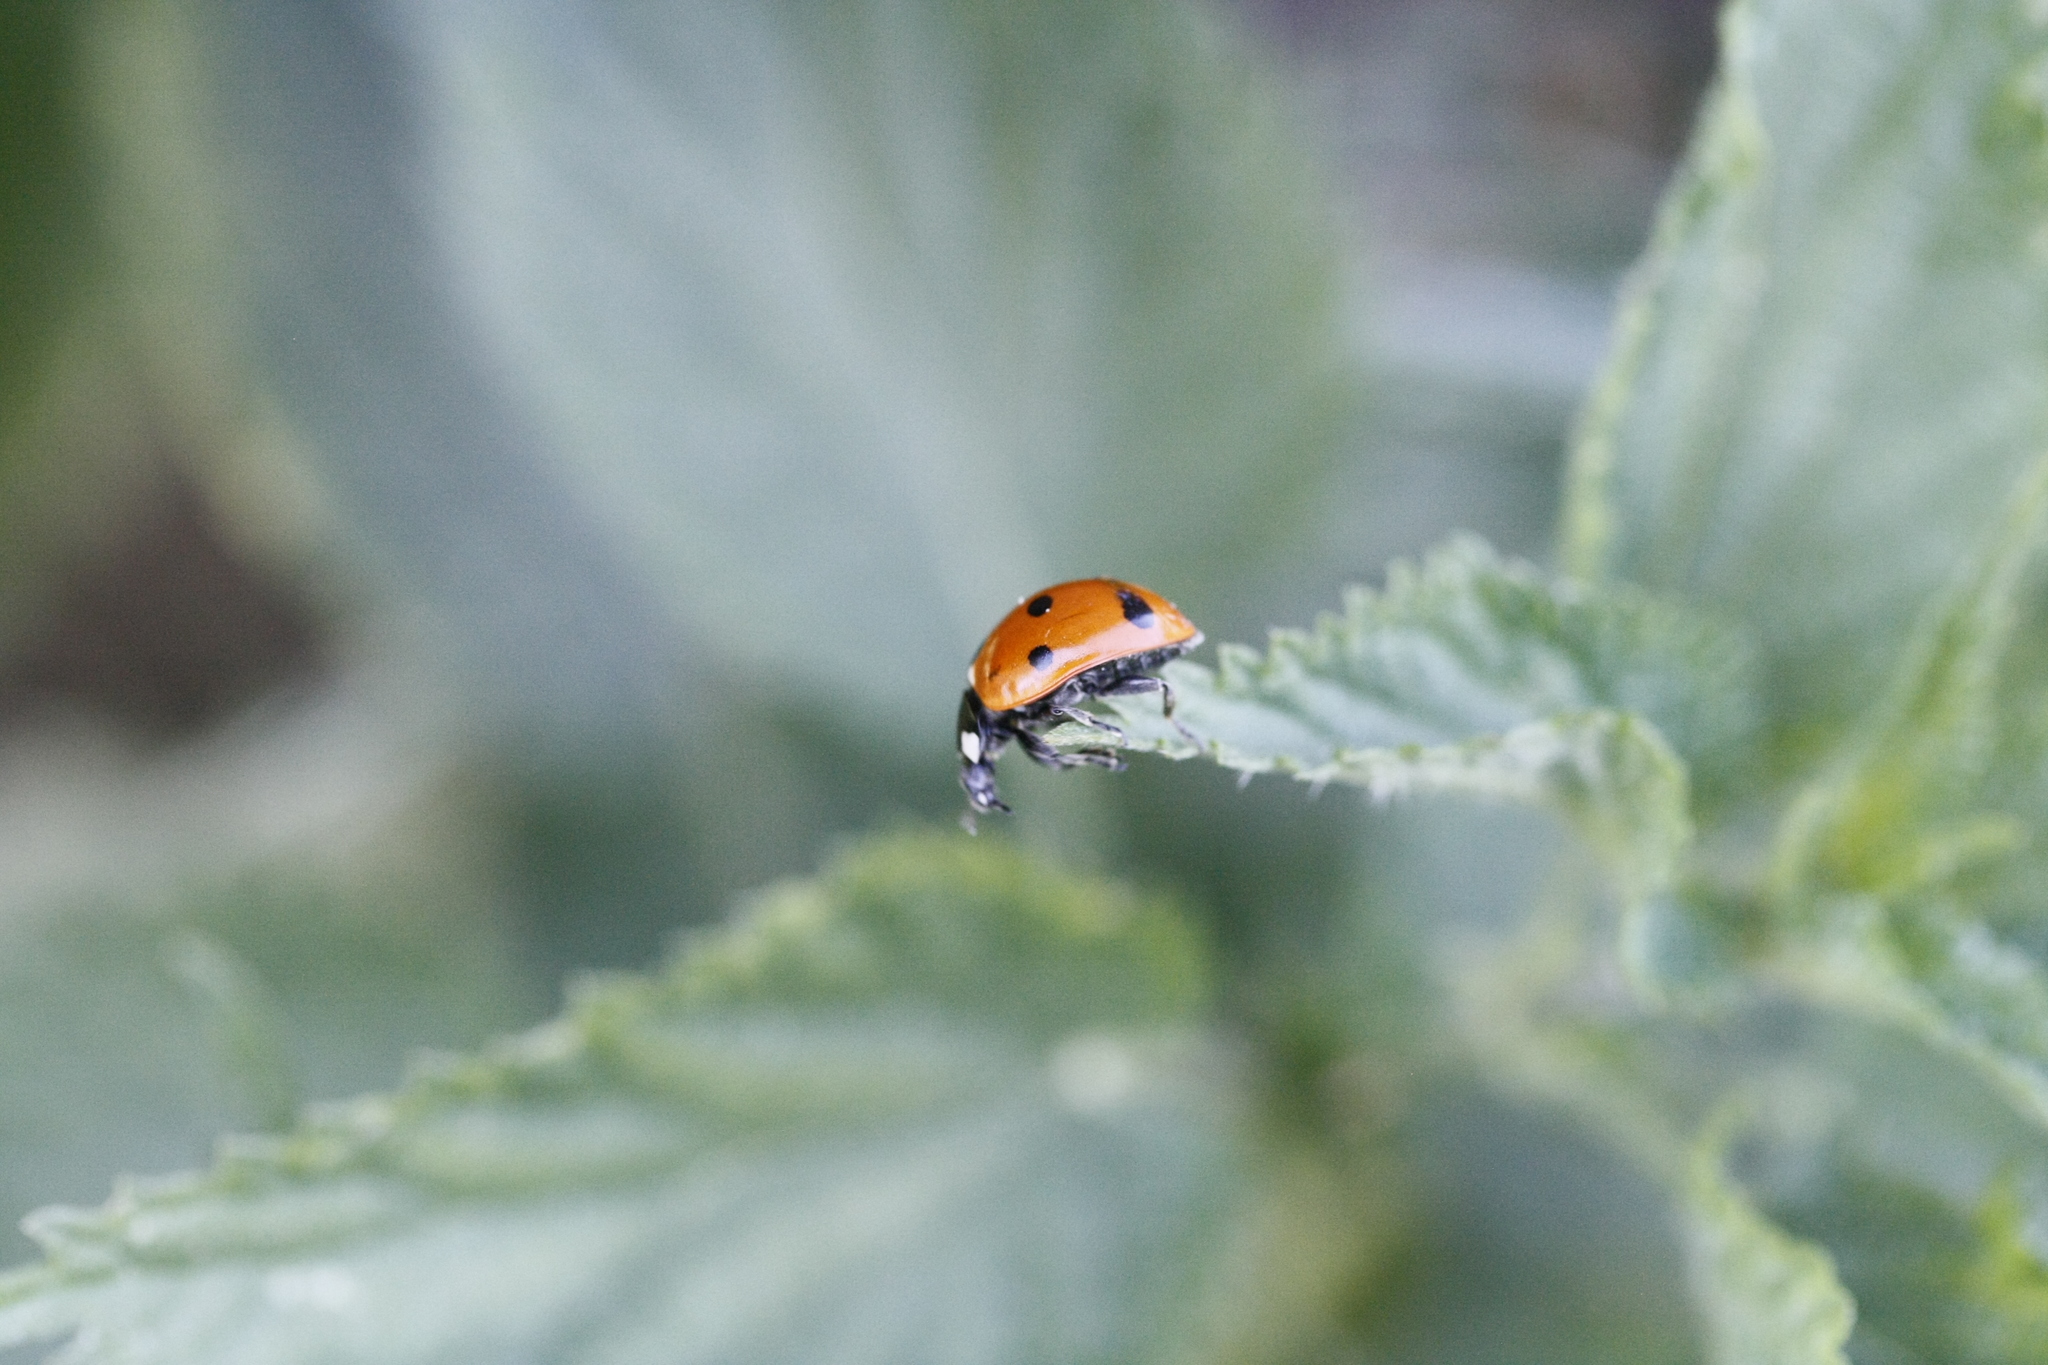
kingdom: Animalia
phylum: Arthropoda
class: Insecta
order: Coleoptera
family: Coccinellidae
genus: Coccinella
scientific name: Coccinella septempunctata
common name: Sevenspotted lady beetle
